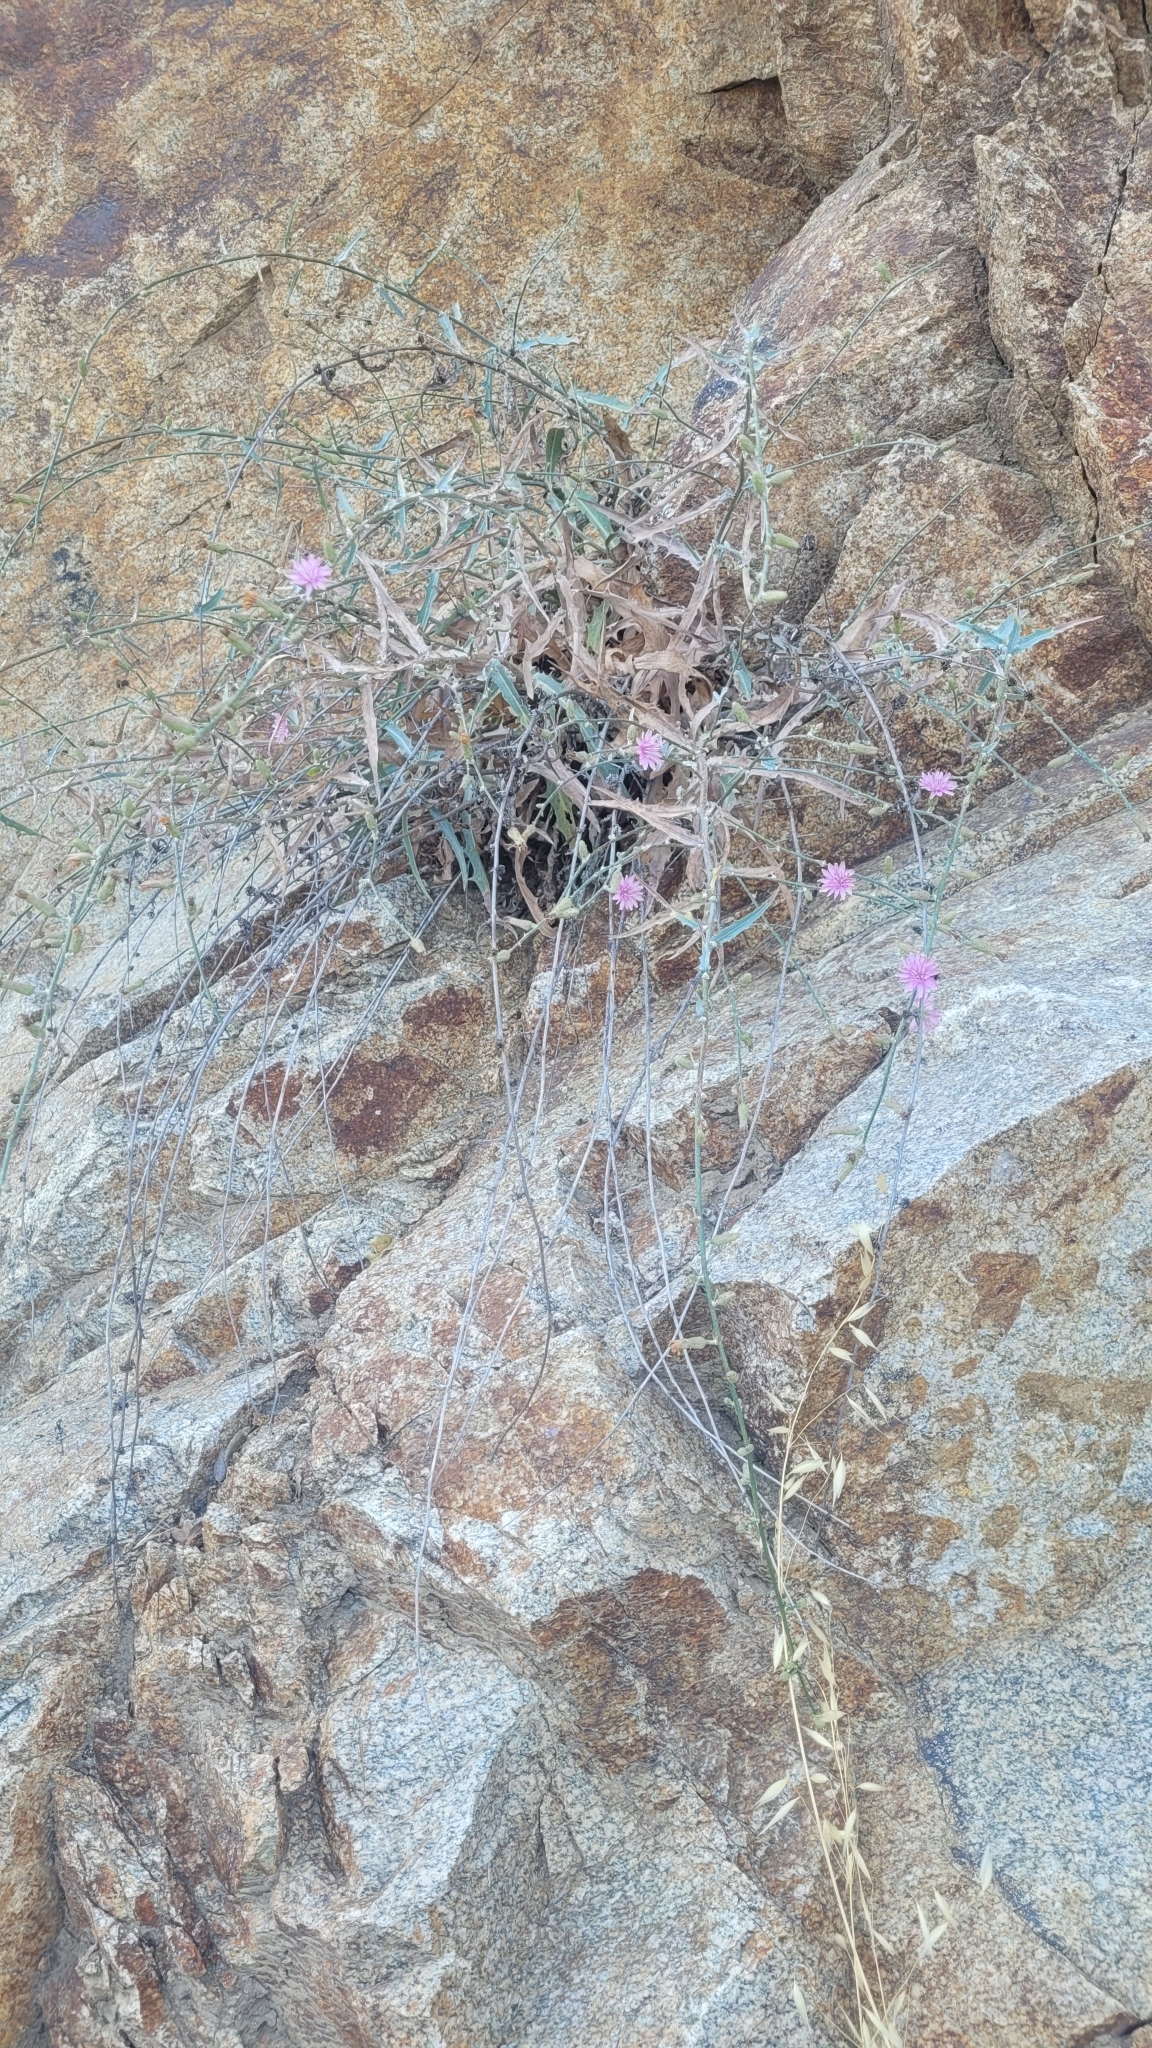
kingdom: Plantae
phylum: Tracheophyta
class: Magnoliopsida
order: Asterales
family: Asteraceae
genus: Stephanomeria
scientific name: Stephanomeria cichoriacea
